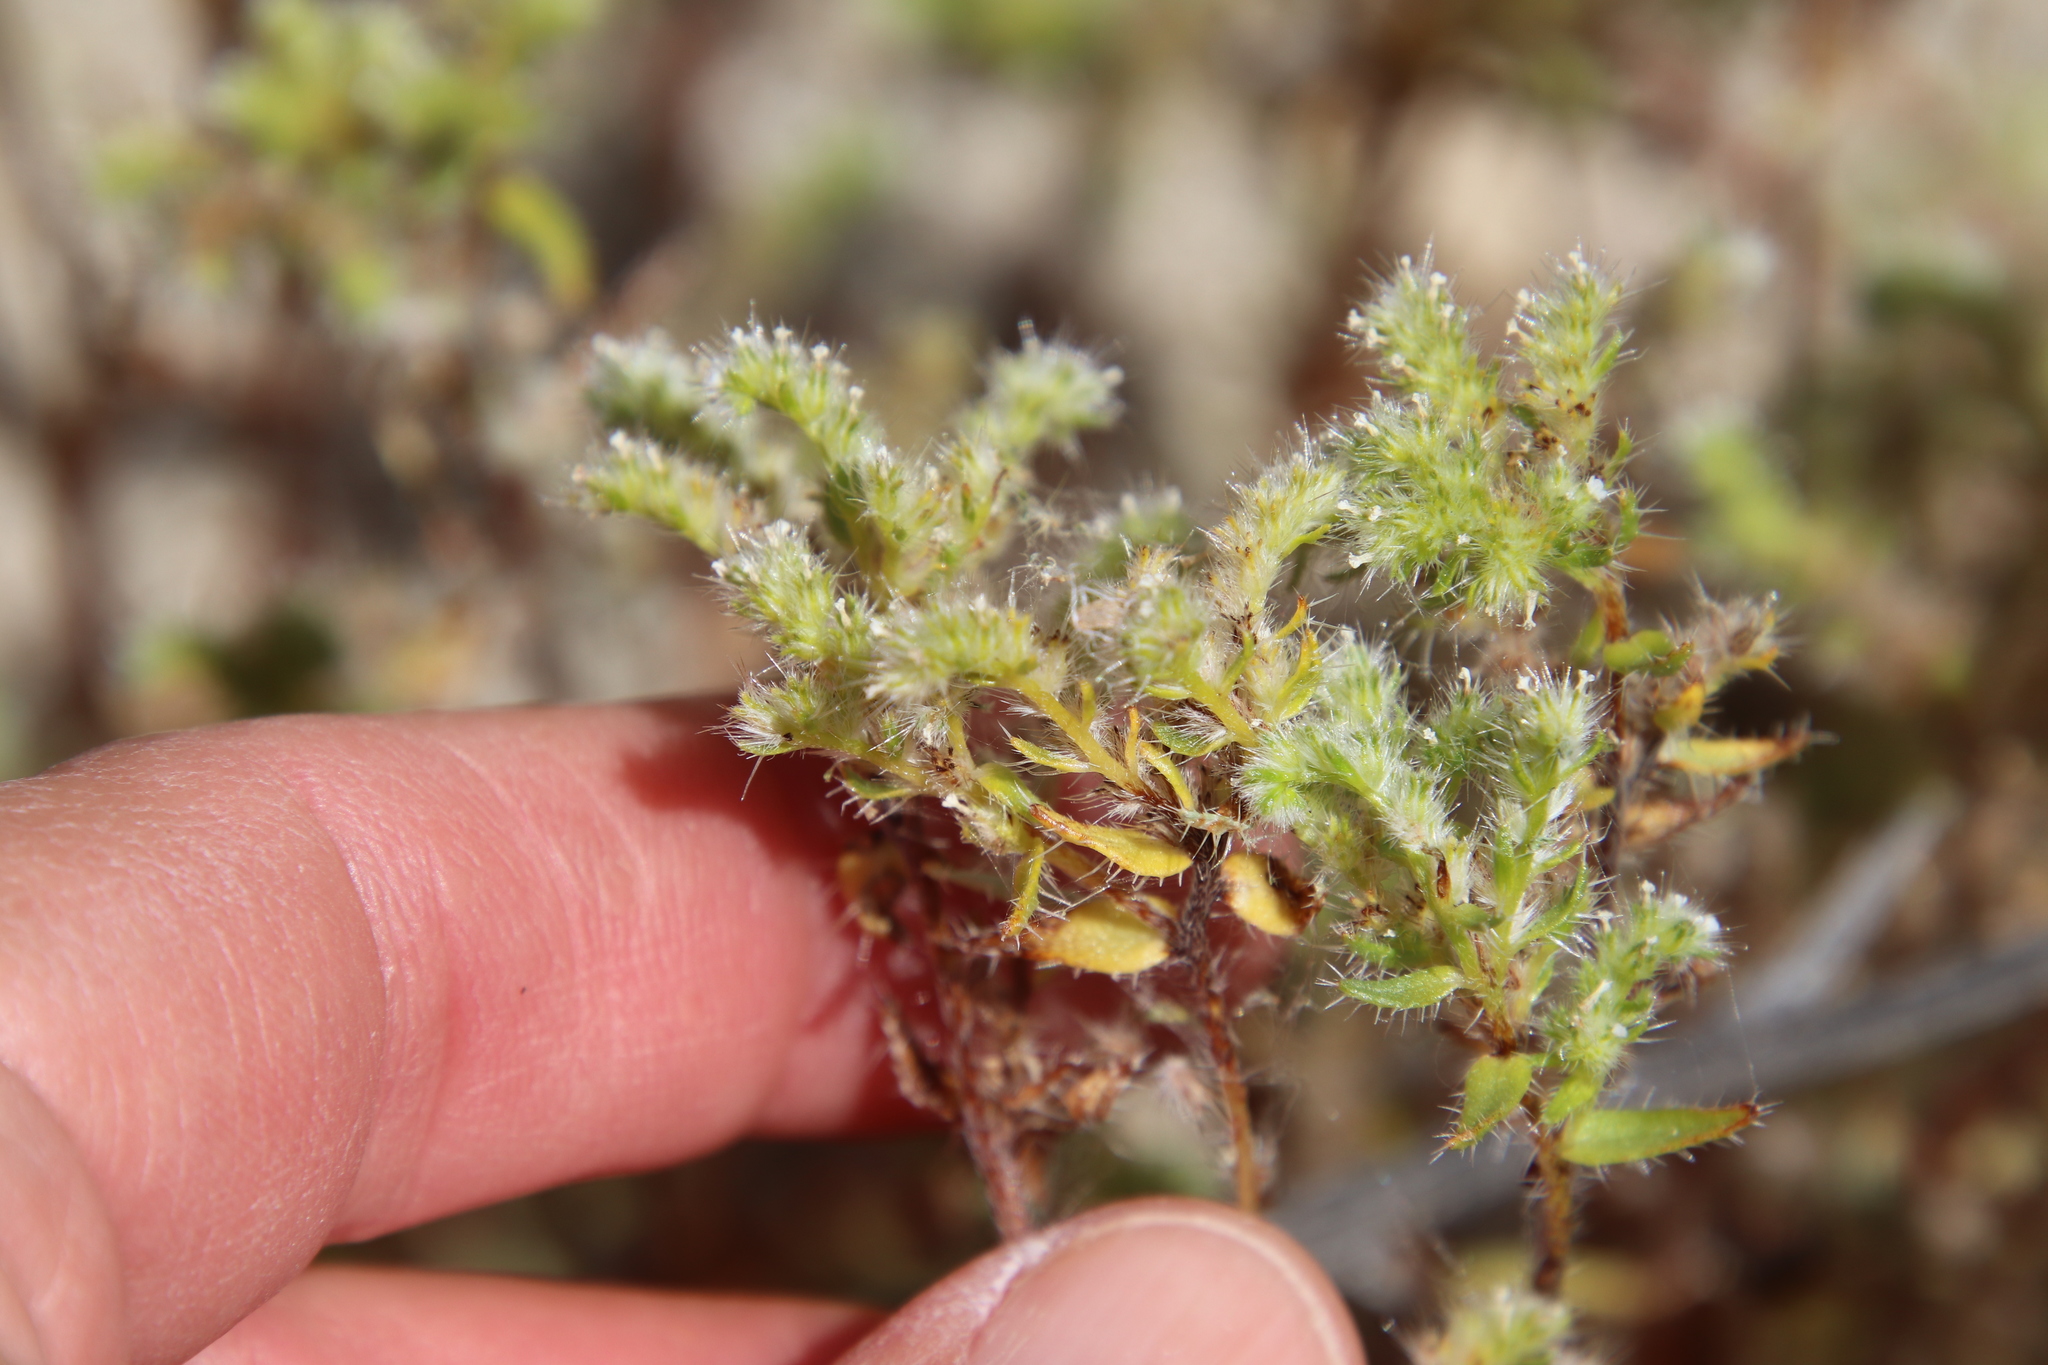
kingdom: Plantae
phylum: Tracheophyta
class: Magnoliopsida
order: Boraginales
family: Boraginaceae
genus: Cryptantha
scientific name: Cryptantha maritima
